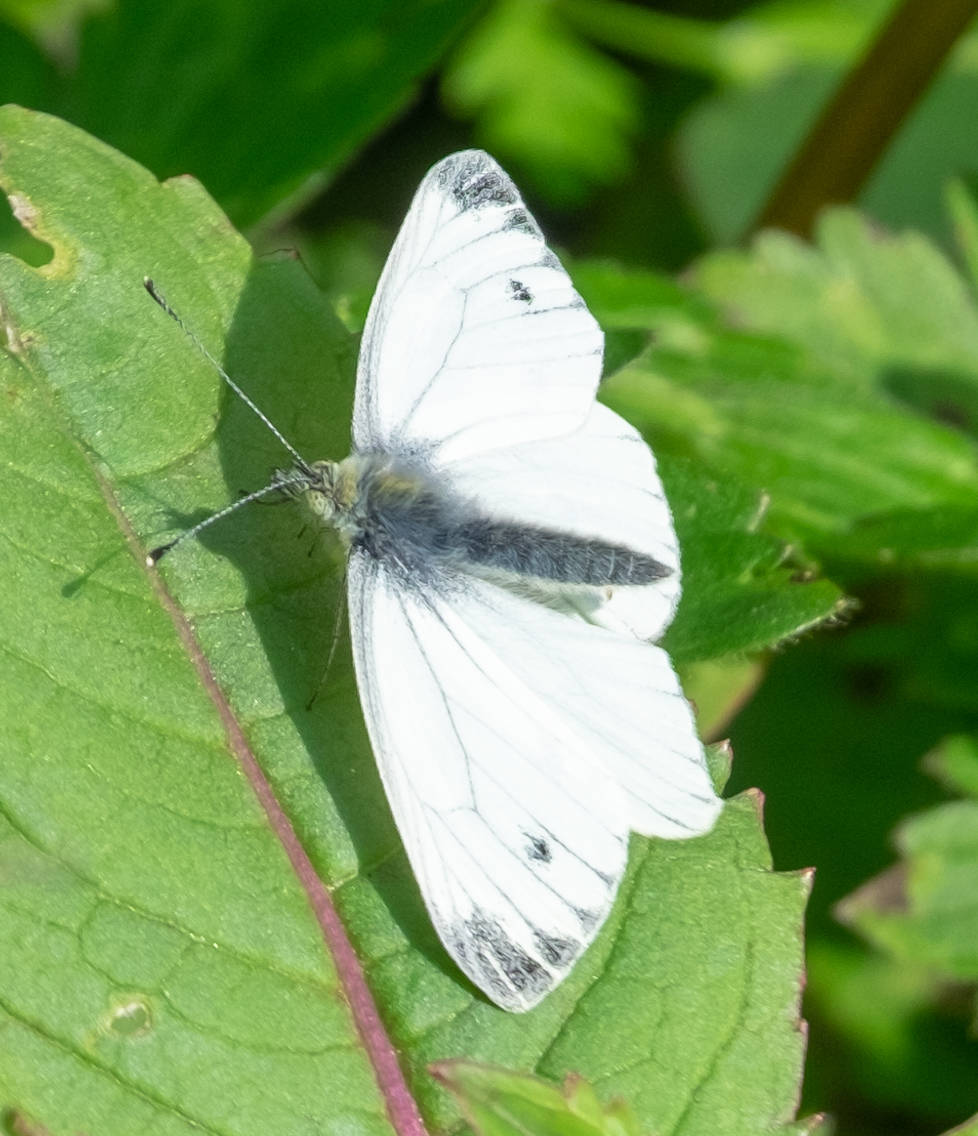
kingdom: Animalia
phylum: Arthropoda
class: Insecta
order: Lepidoptera
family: Pieridae
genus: Pieris
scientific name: Pieris napi
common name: Green-veined white
